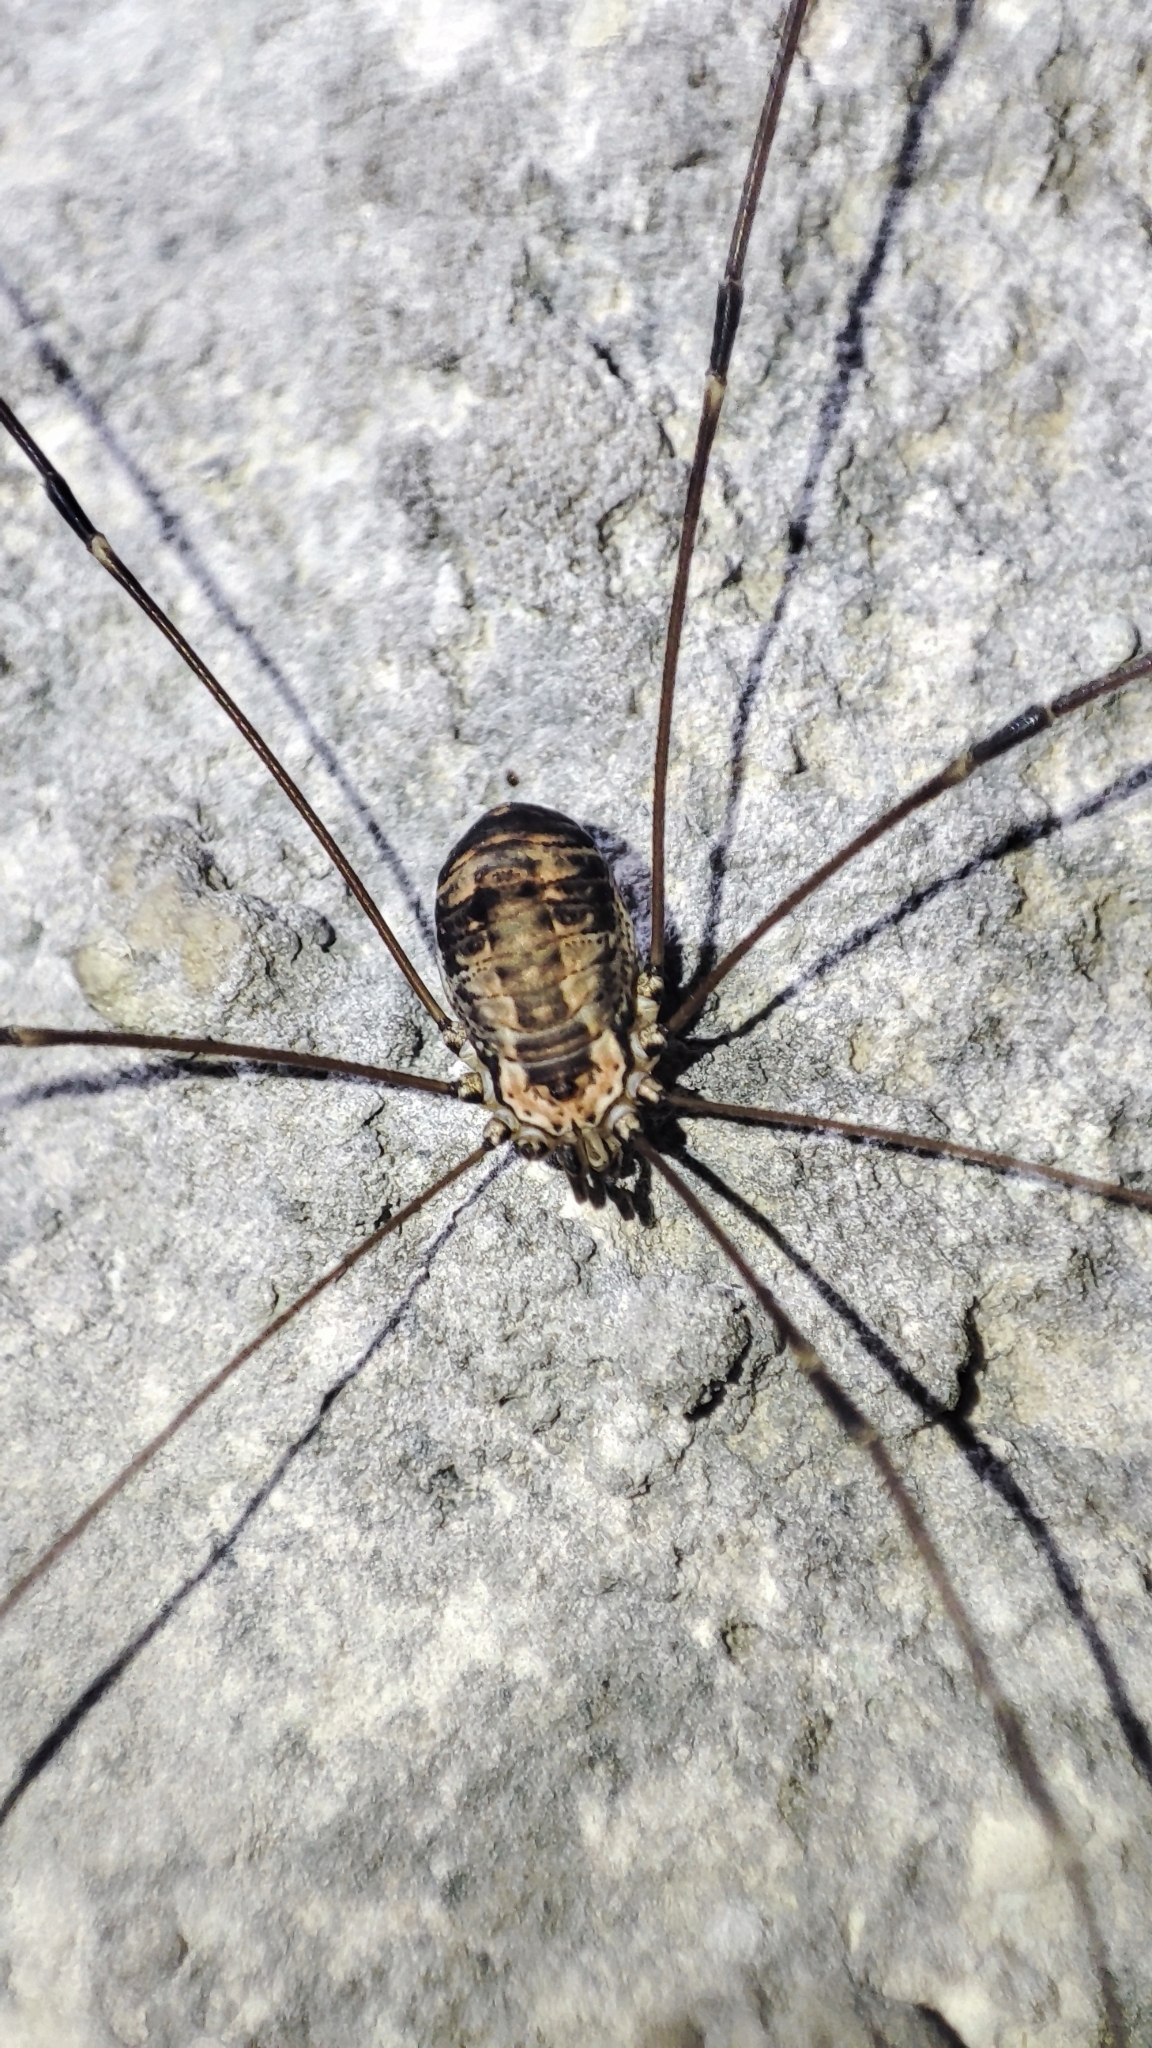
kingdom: Animalia
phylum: Arthropoda
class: Arachnida
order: Opiliones
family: Sclerosomatidae
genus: Leiobunum
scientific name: Leiobunum limbatum
